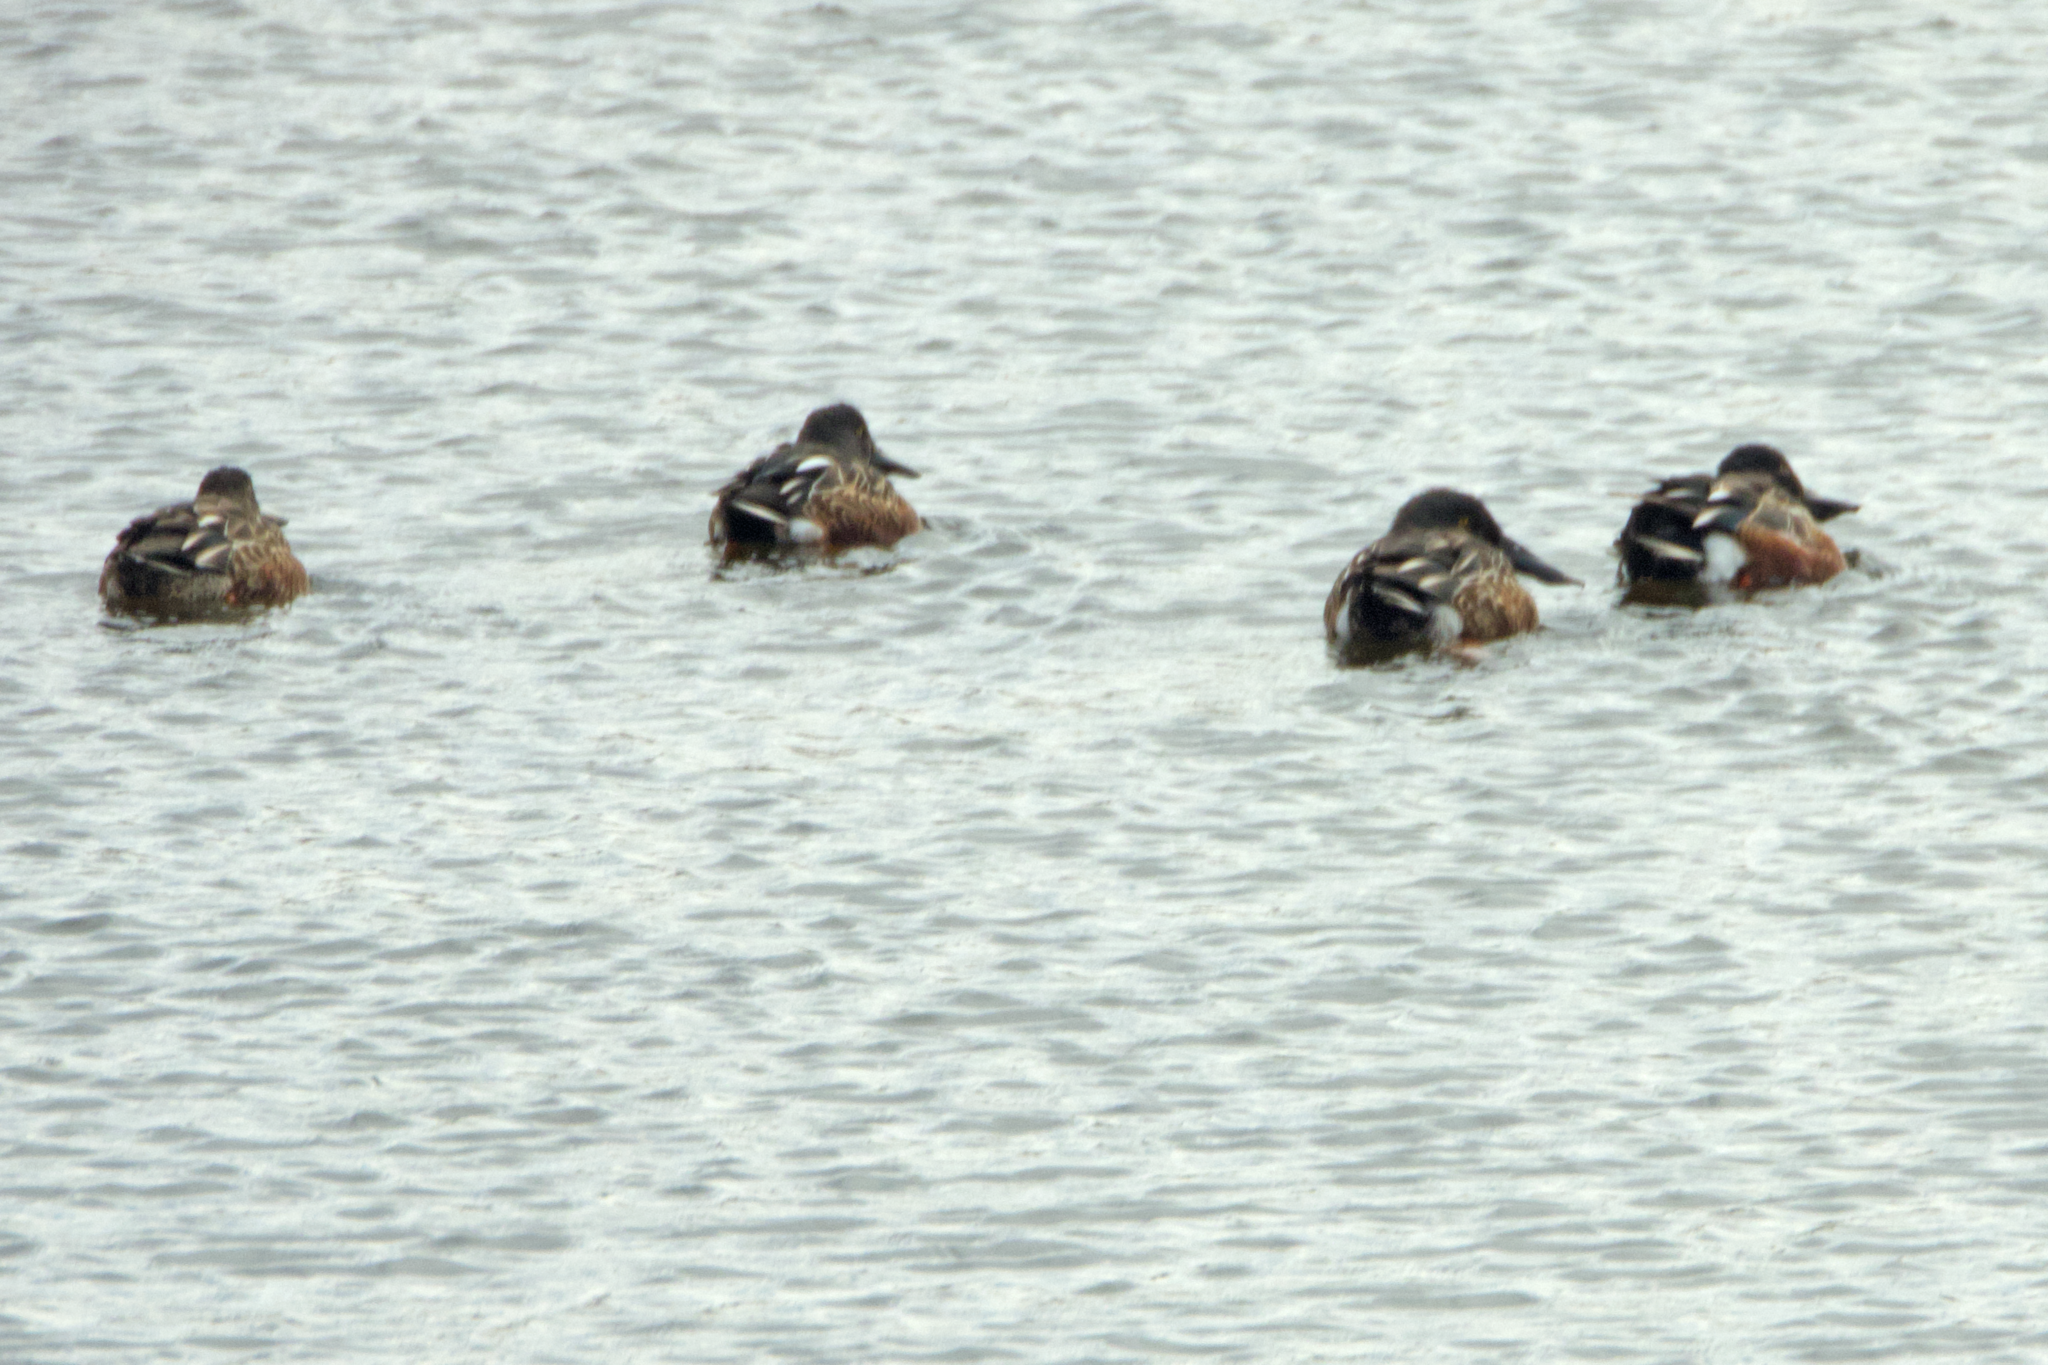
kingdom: Animalia
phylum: Chordata
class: Aves
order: Anseriformes
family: Anatidae
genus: Spatula
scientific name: Spatula clypeata
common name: Northern shoveler
